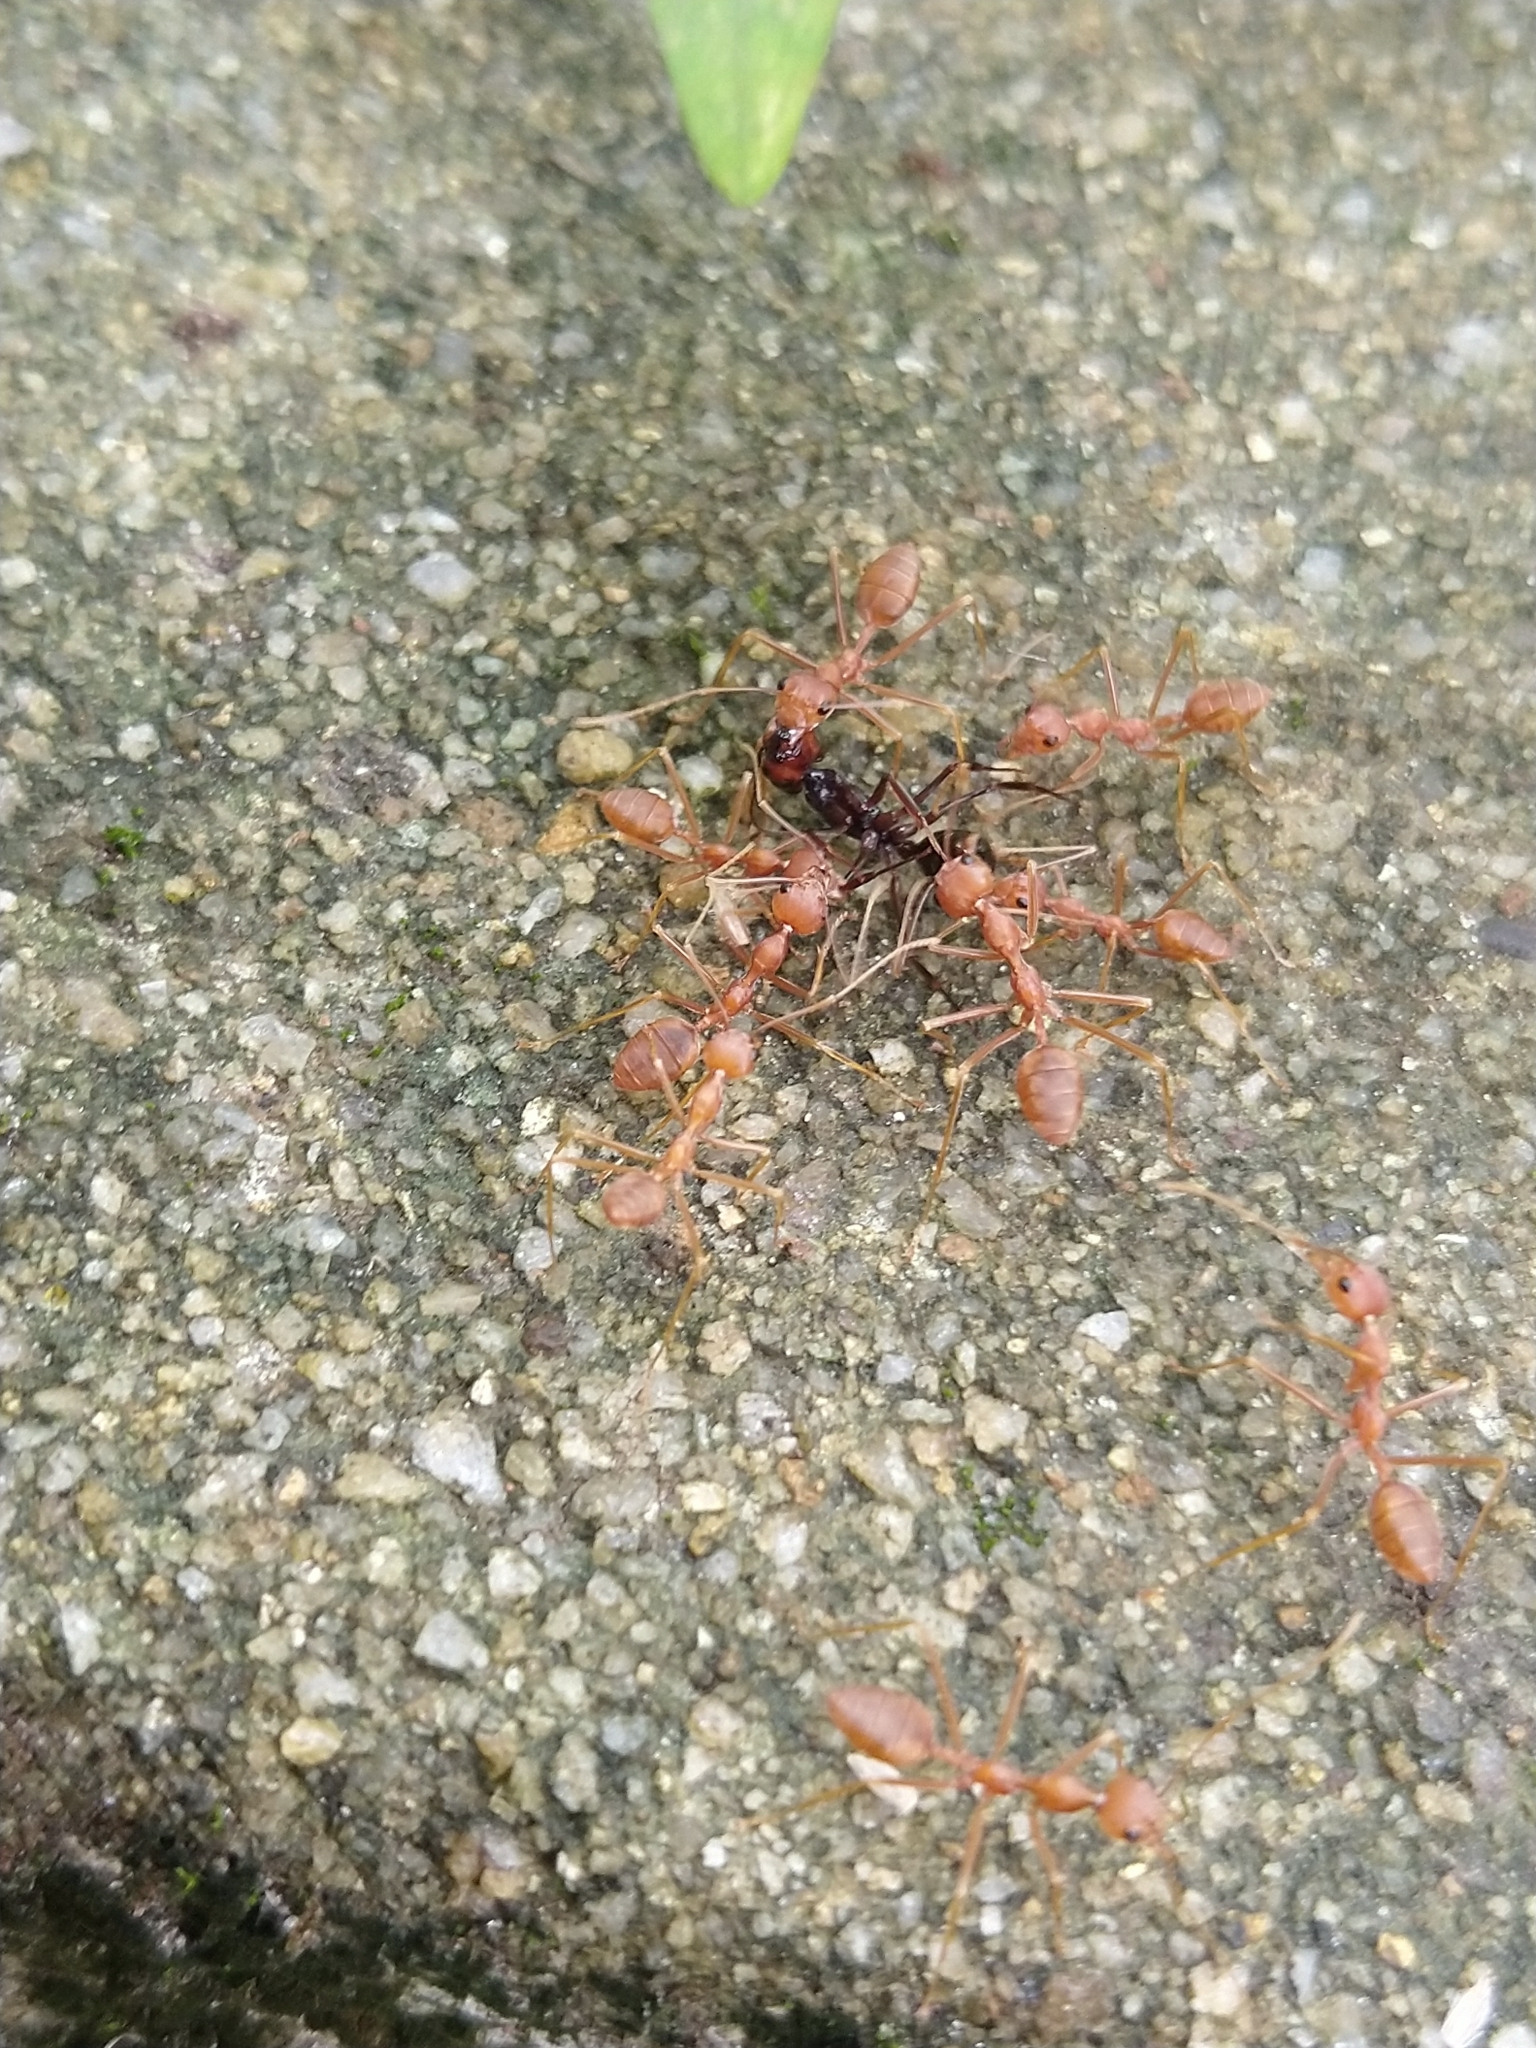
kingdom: Animalia
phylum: Arthropoda
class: Insecta
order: Hymenoptera
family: Formicidae
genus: Oecophylla
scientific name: Oecophylla smaragdina
